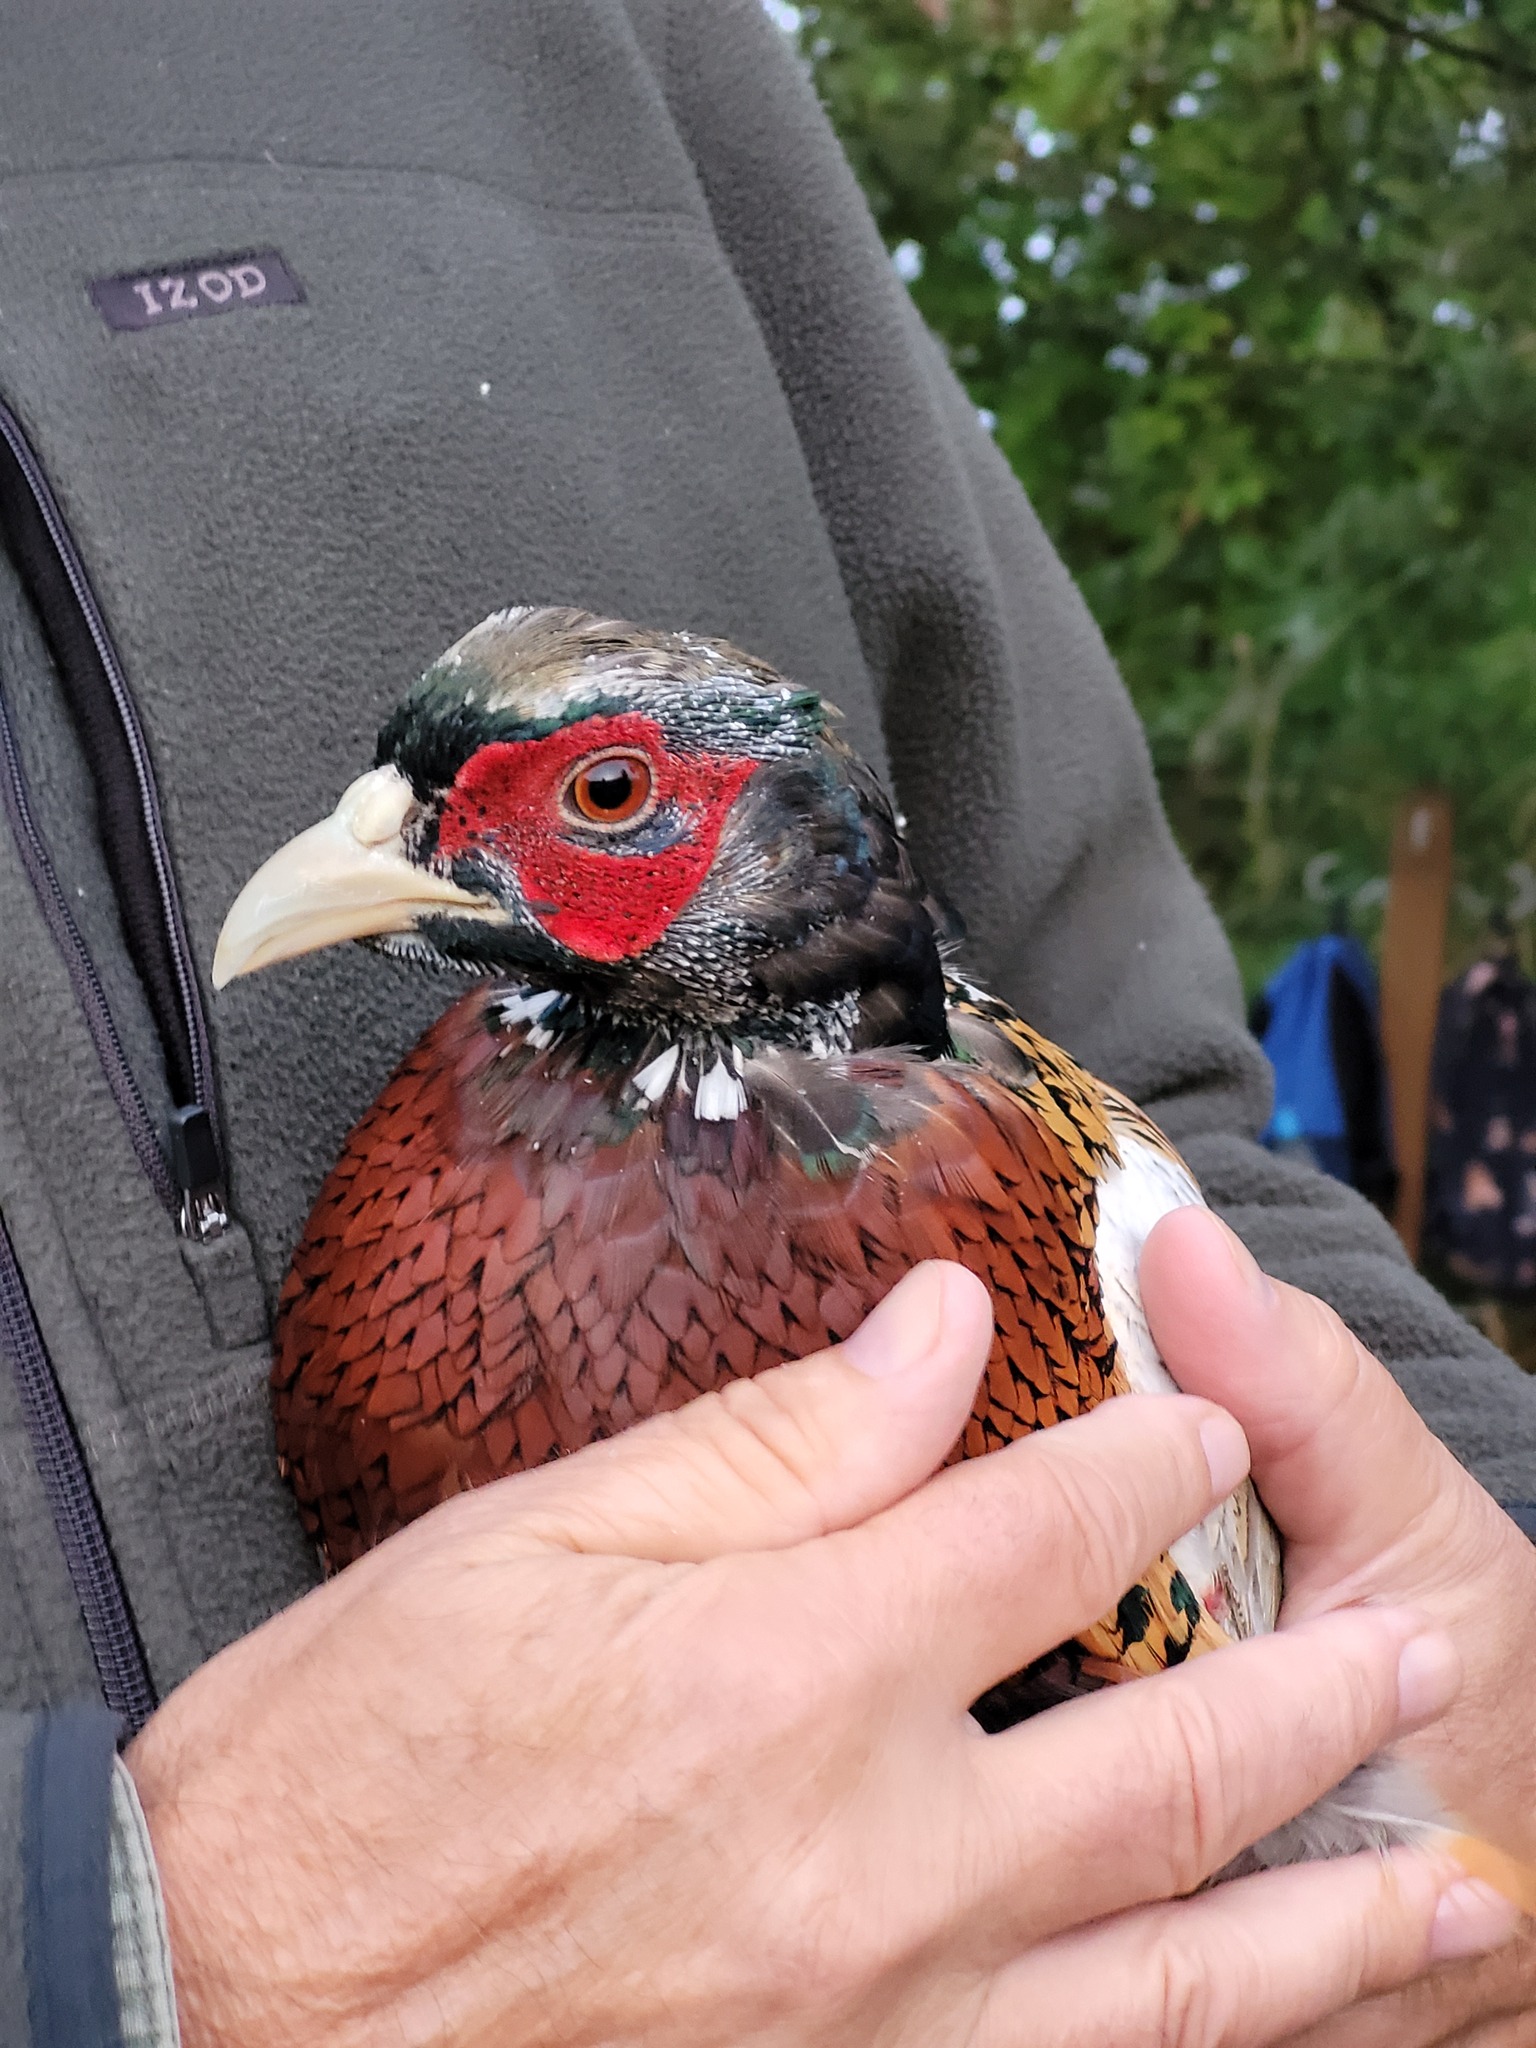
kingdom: Animalia
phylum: Chordata
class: Aves
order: Galliformes
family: Phasianidae
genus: Phasianus
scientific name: Phasianus colchicus
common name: Common pheasant
